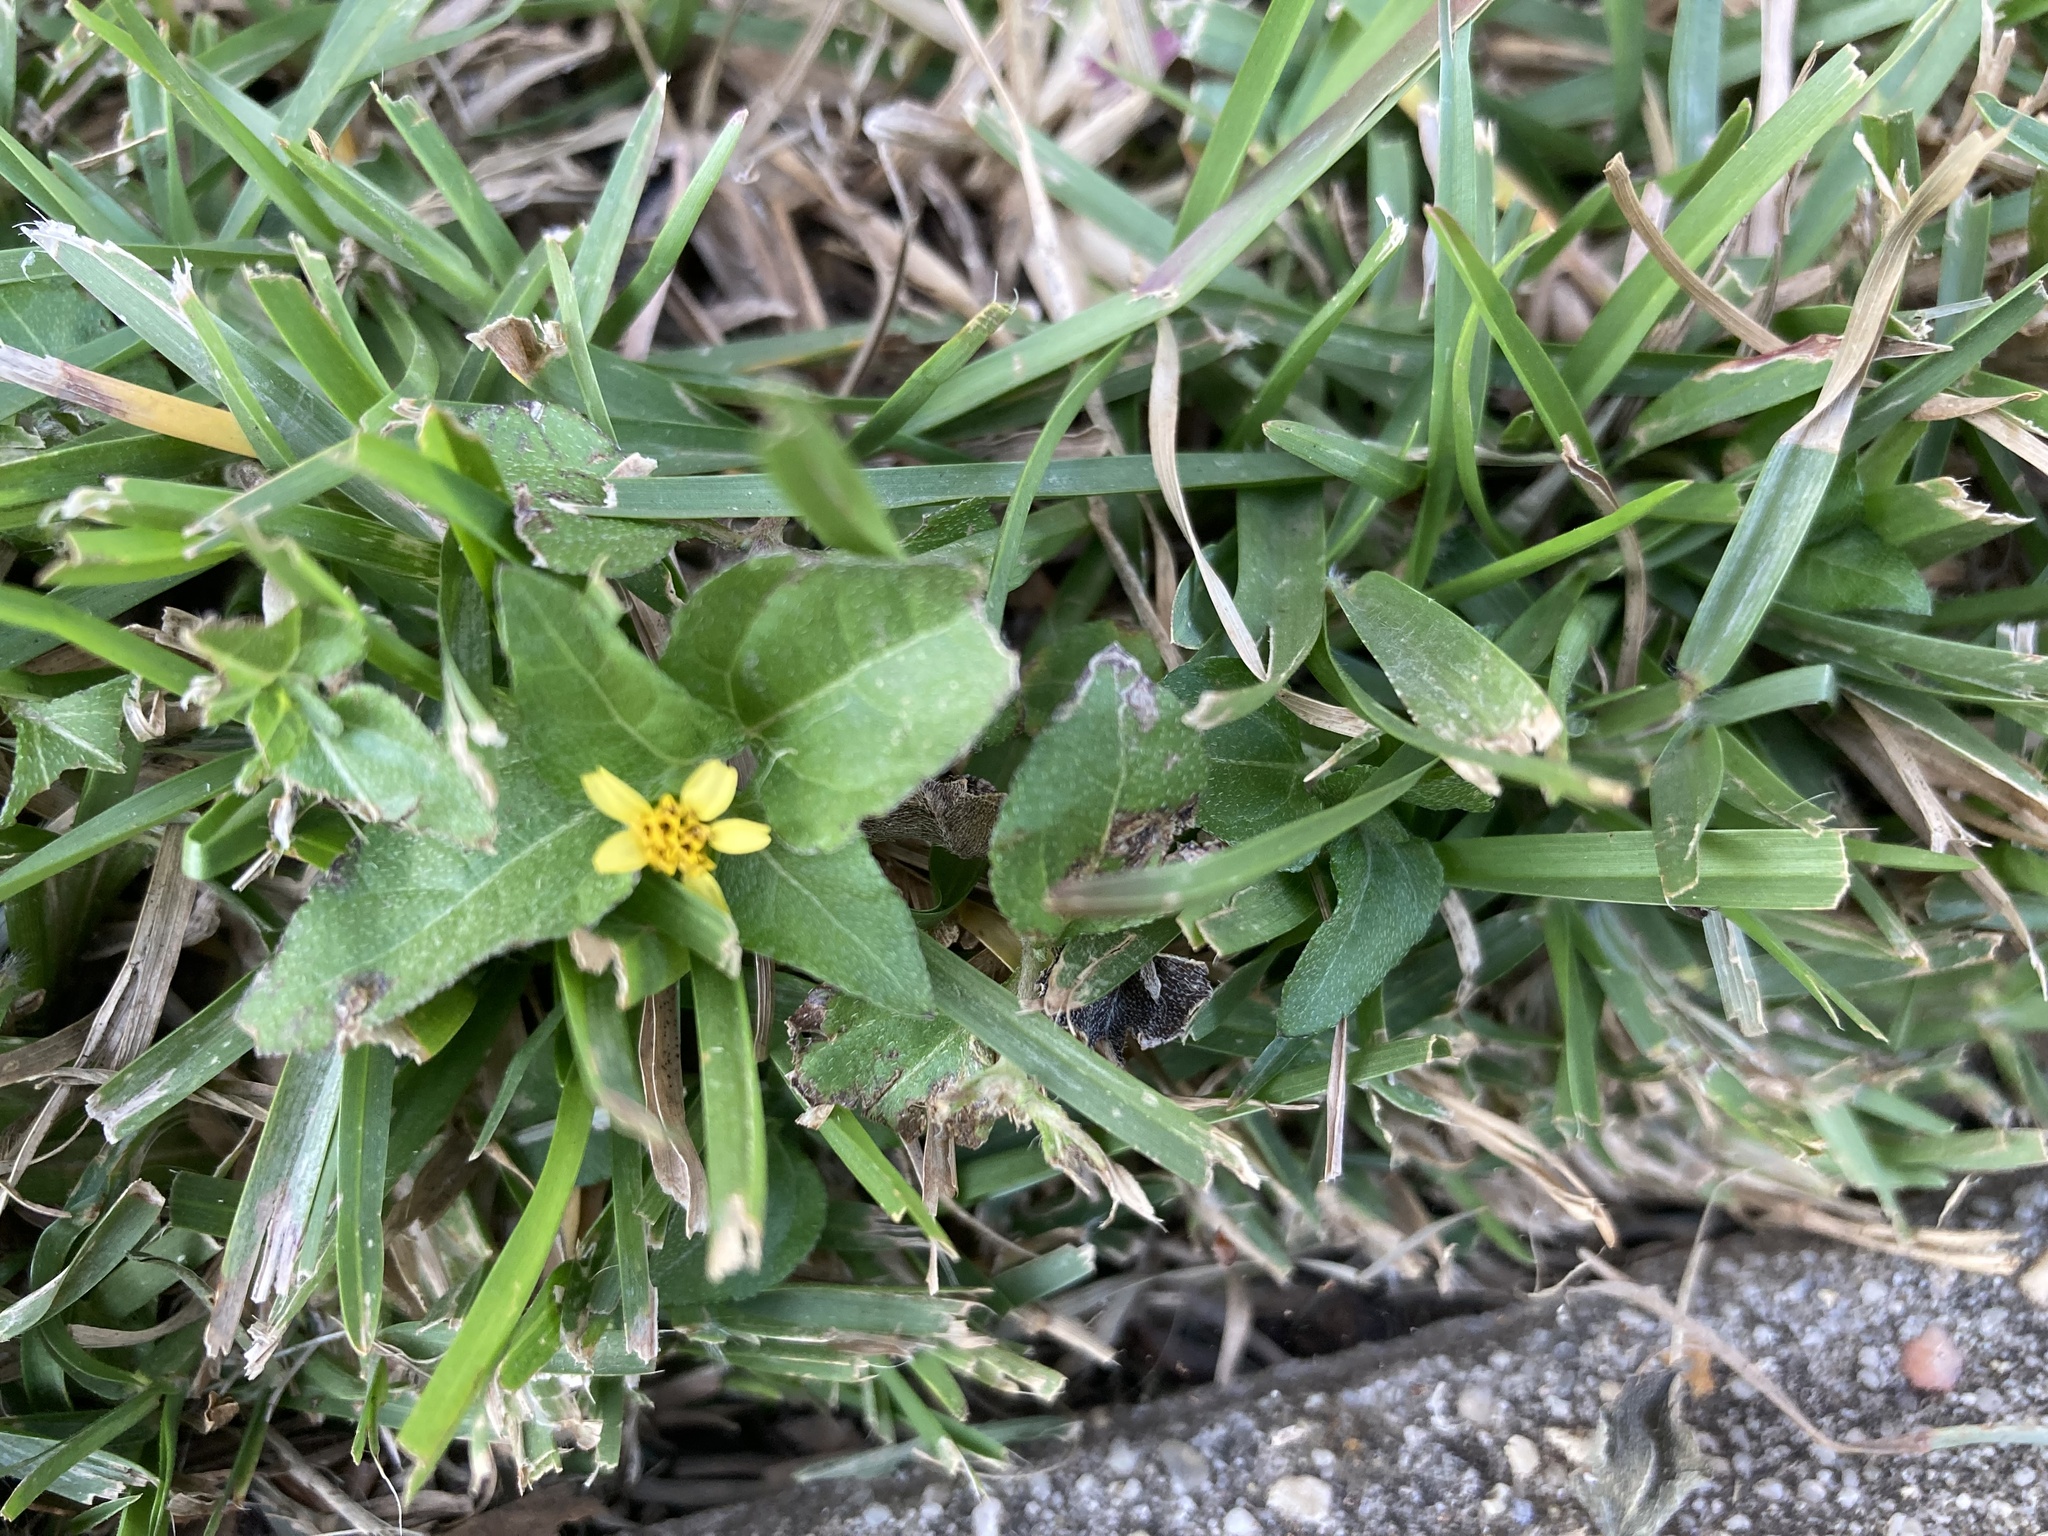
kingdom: Plantae
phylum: Tracheophyta
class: Magnoliopsida
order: Asterales
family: Asteraceae
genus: Calyptocarpus
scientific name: Calyptocarpus vialis
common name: Straggler daisy
